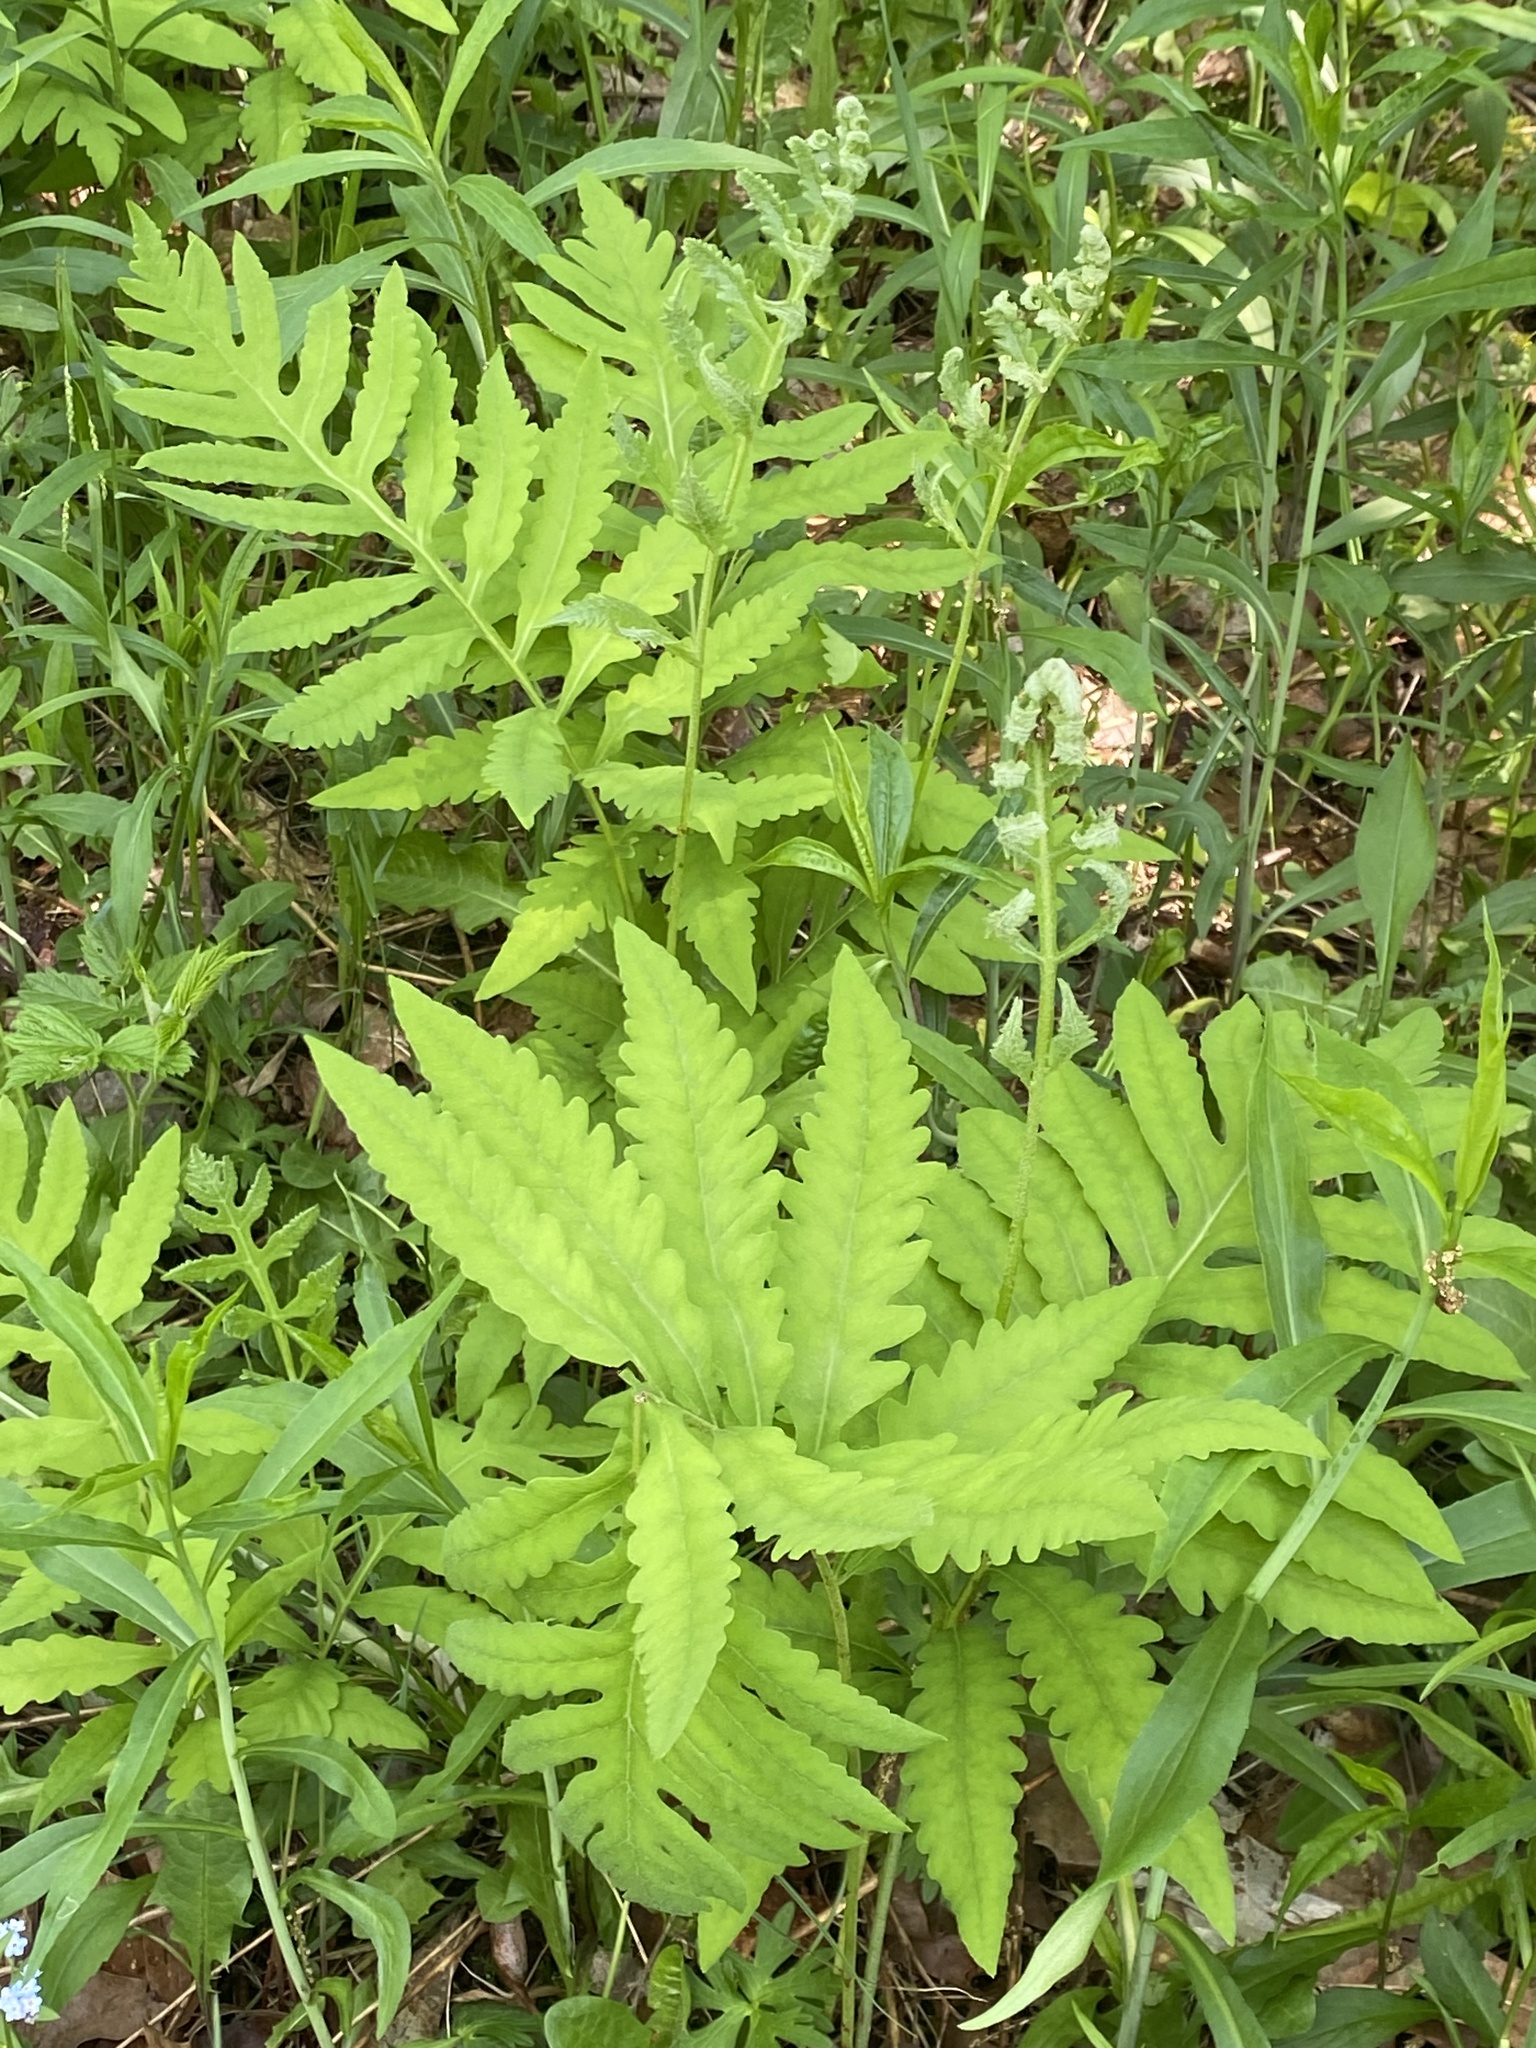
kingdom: Plantae
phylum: Tracheophyta
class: Polypodiopsida
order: Polypodiales
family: Onocleaceae
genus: Onoclea
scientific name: Onoclea sensibilis
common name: Sensitive fern
